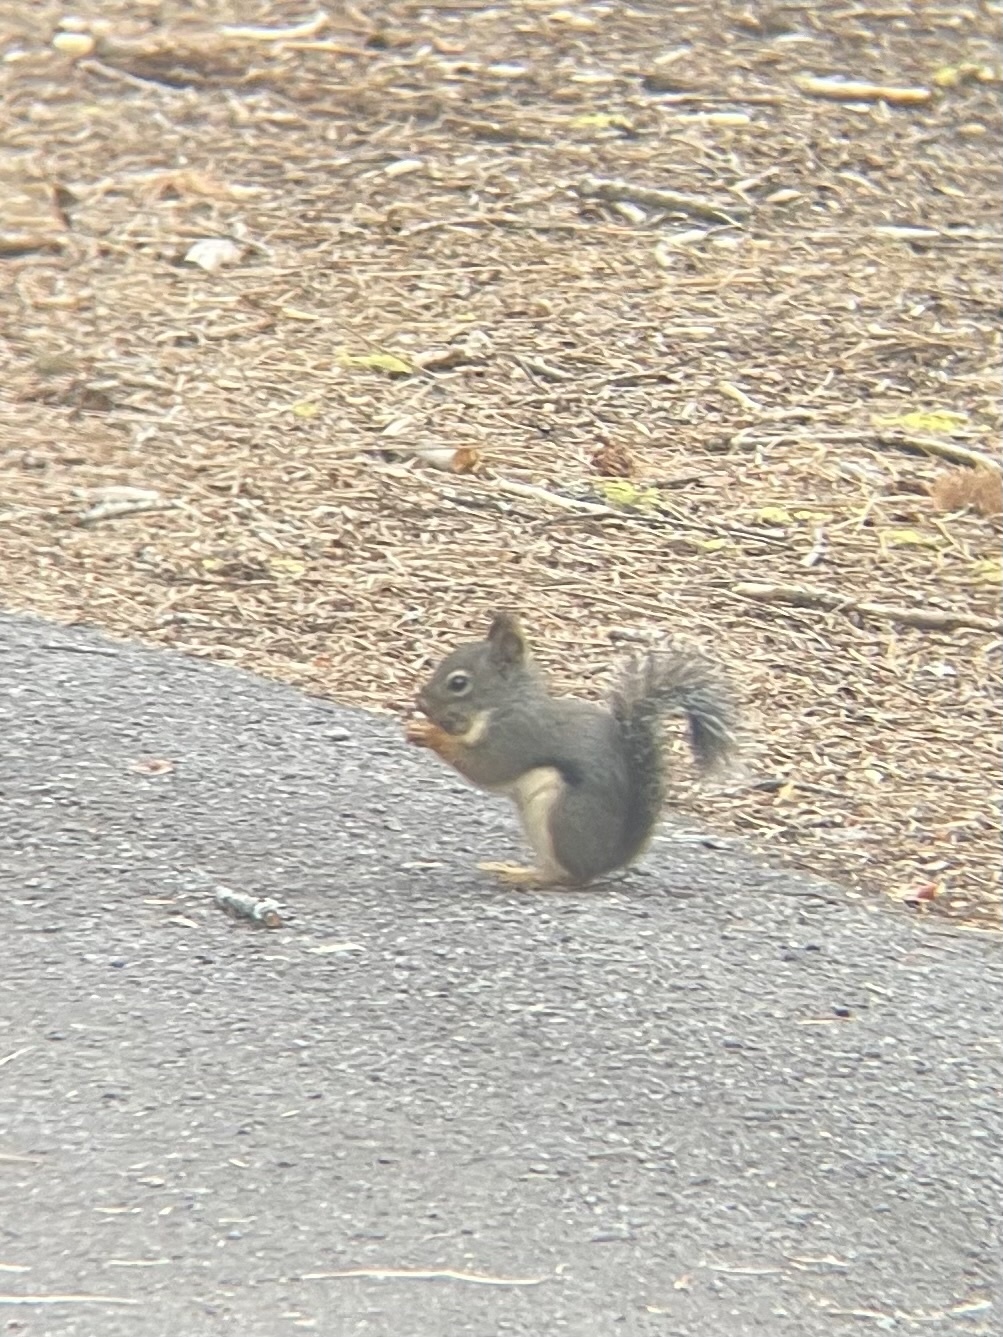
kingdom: Animalia
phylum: Chordata
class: Mammalia
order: Rodentia
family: Sciuridae
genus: Tamiasciurus
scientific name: Tamiasciurus douglasii
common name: Douglas's squirrel
